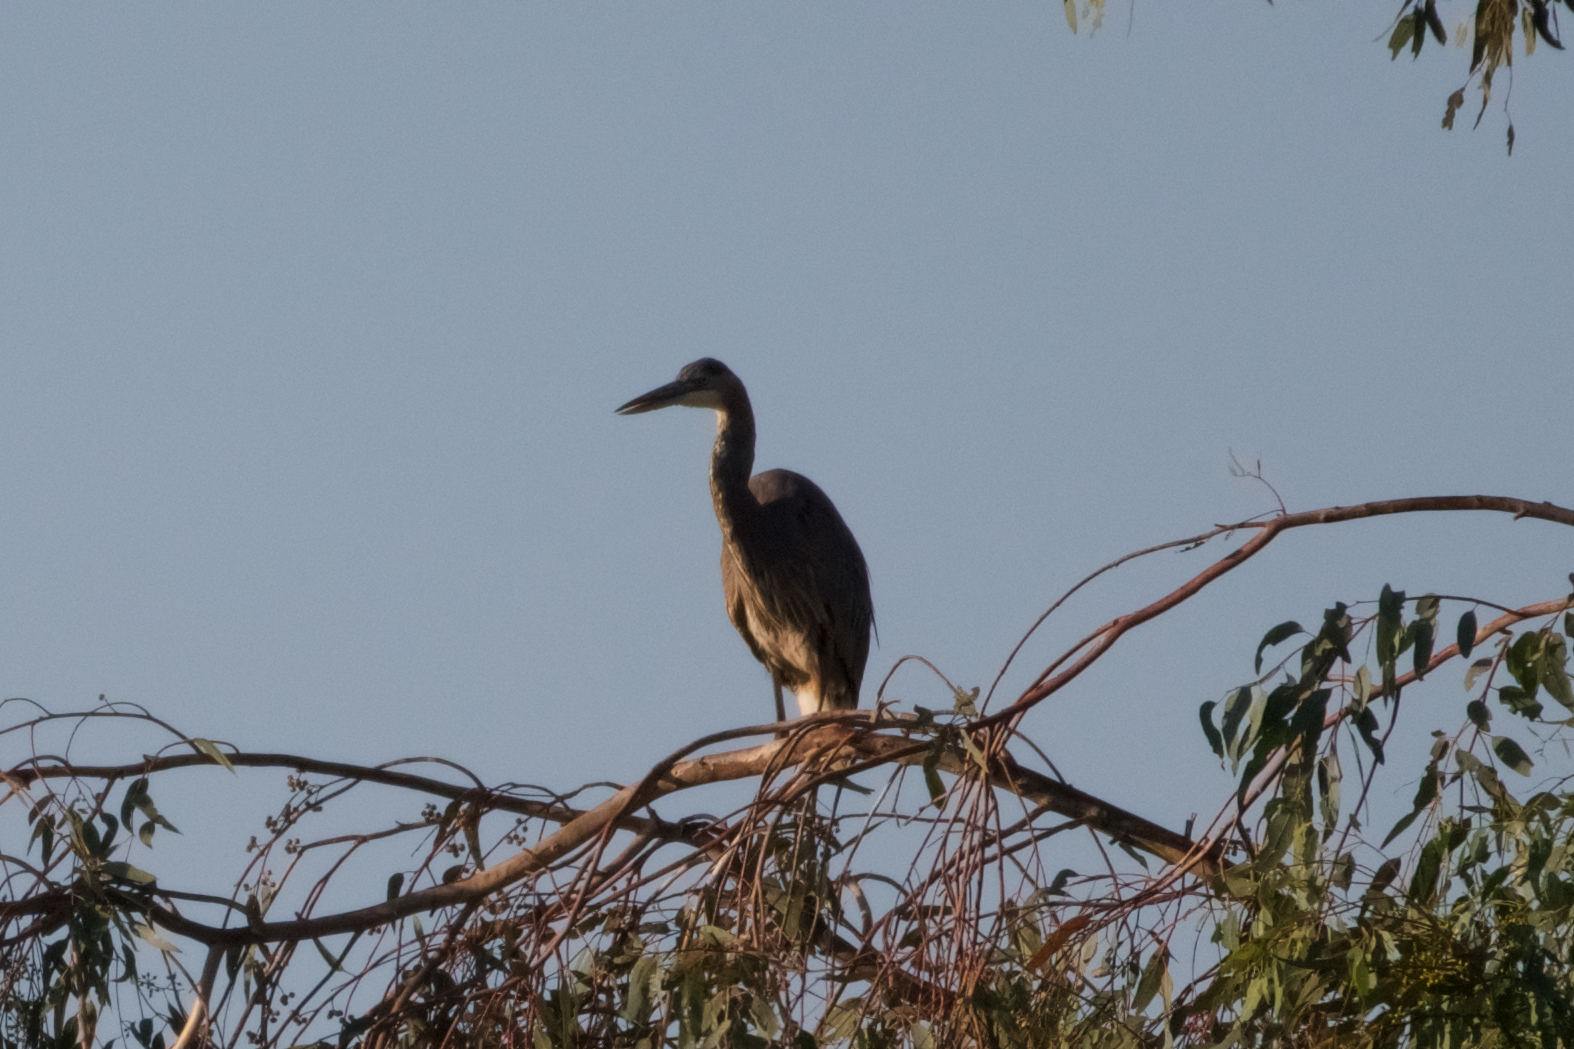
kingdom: Animalia
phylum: Chordata
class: Aves
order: Pelecaniformes
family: Ardeidae
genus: Ardea
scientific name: Ardea herodias
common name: Great blue heron
